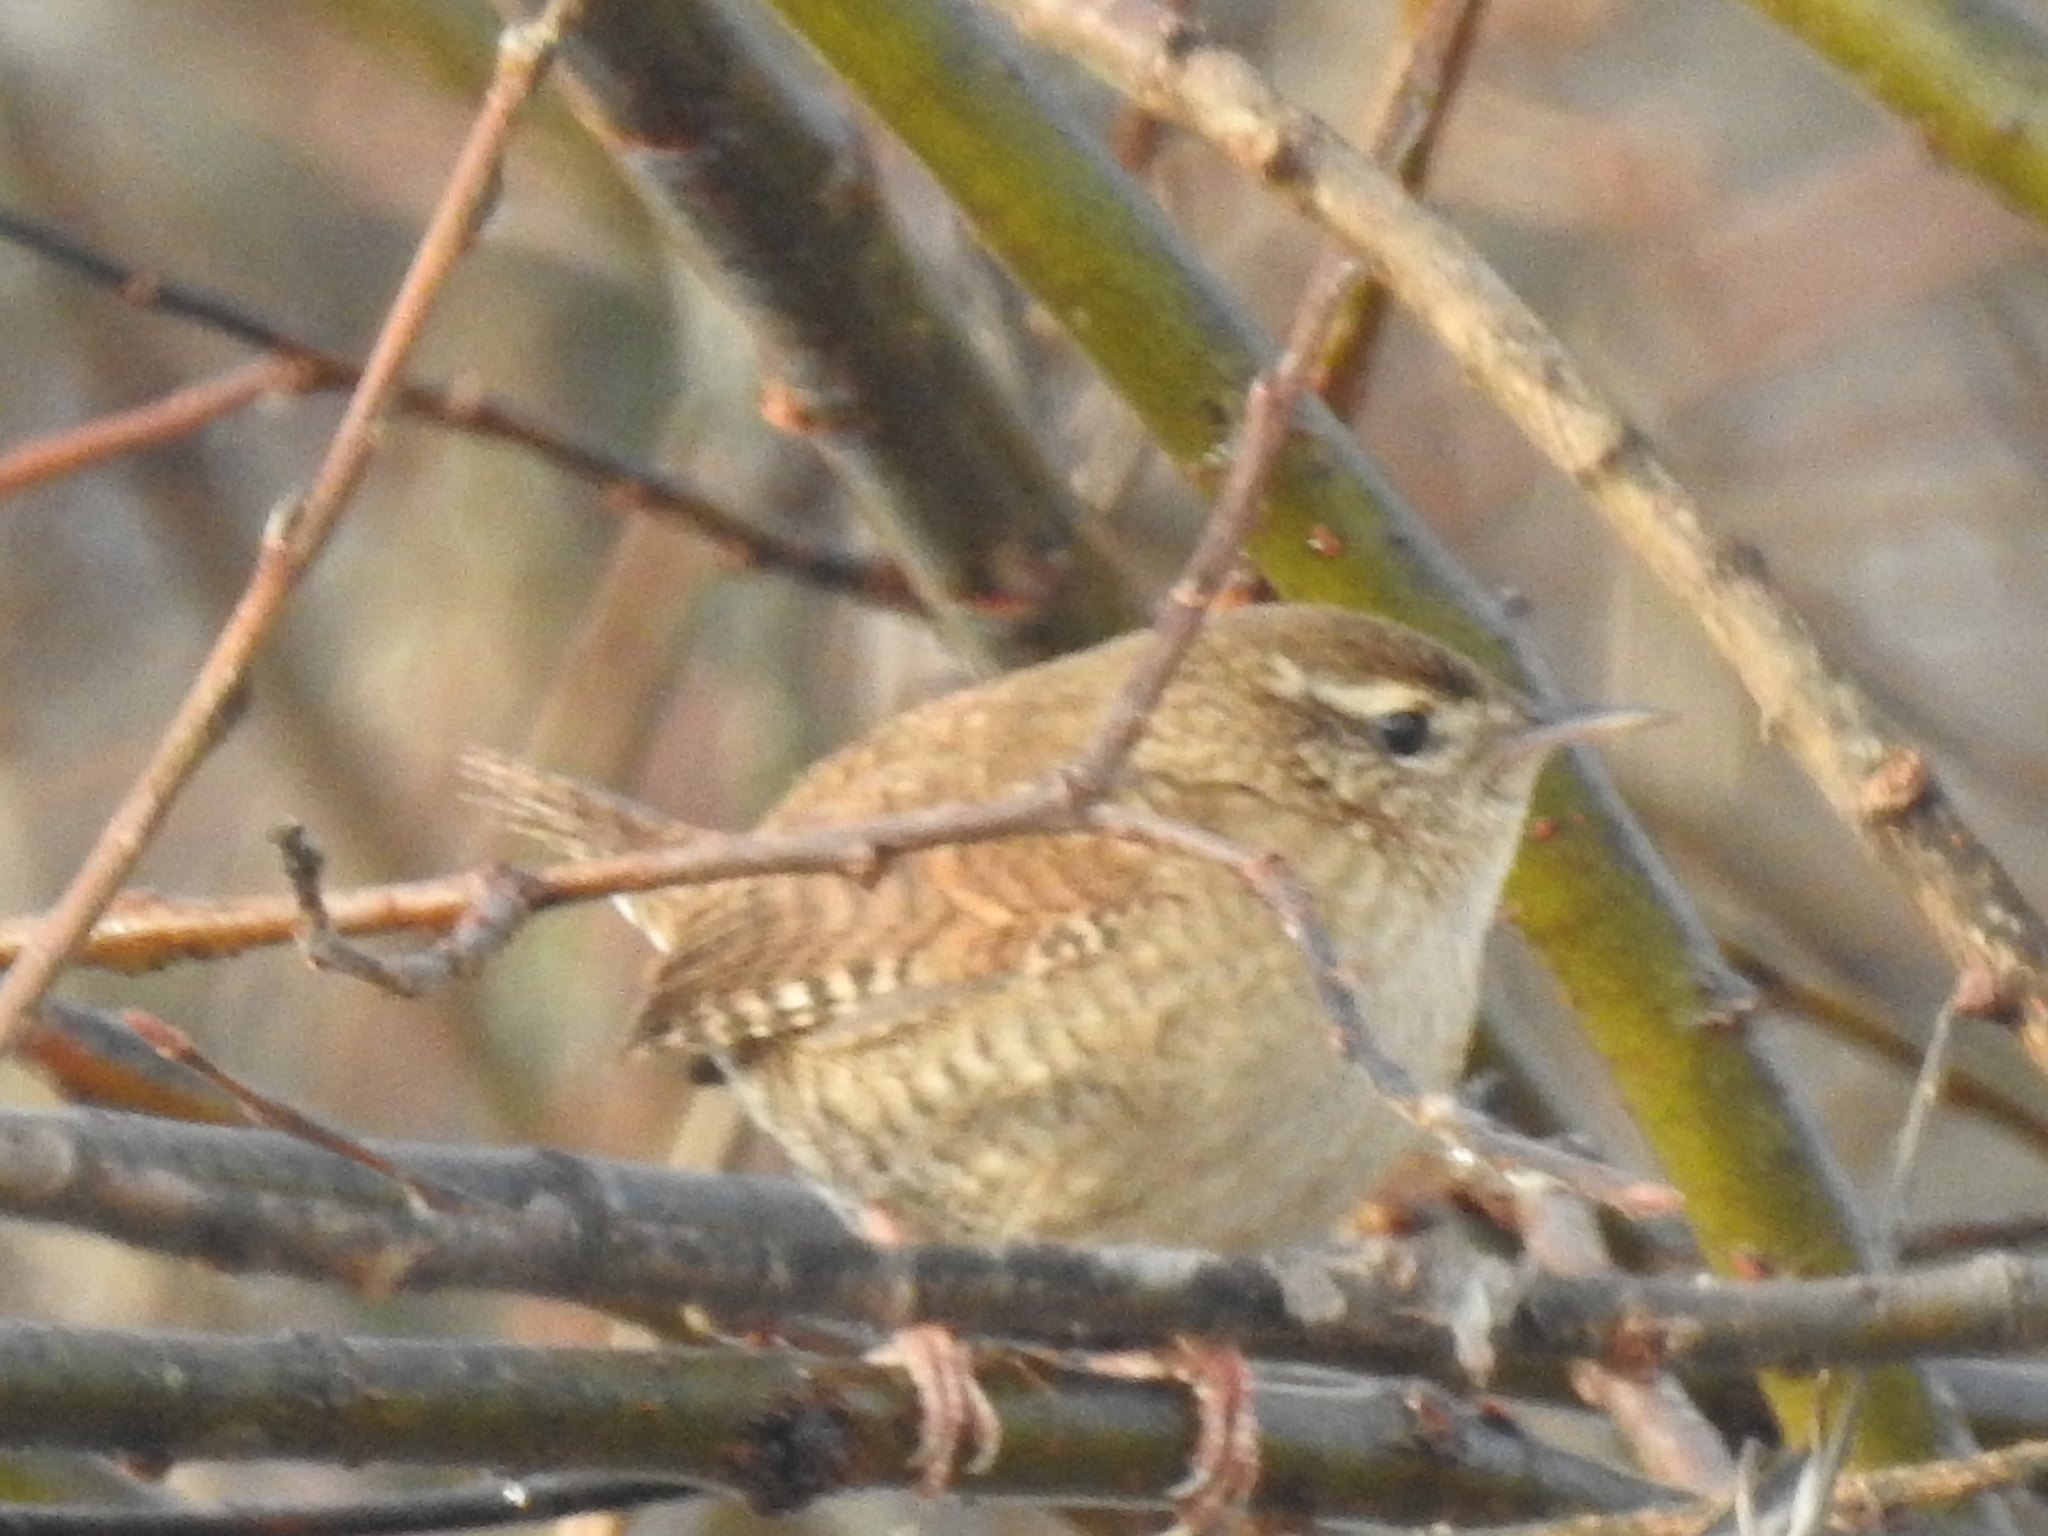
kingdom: Animalia
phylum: Chordata
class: Aves
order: Passeriformes
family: Troglodytidae
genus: Troglodytes
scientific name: Troglodytes troglodytes
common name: Eurasian wren
